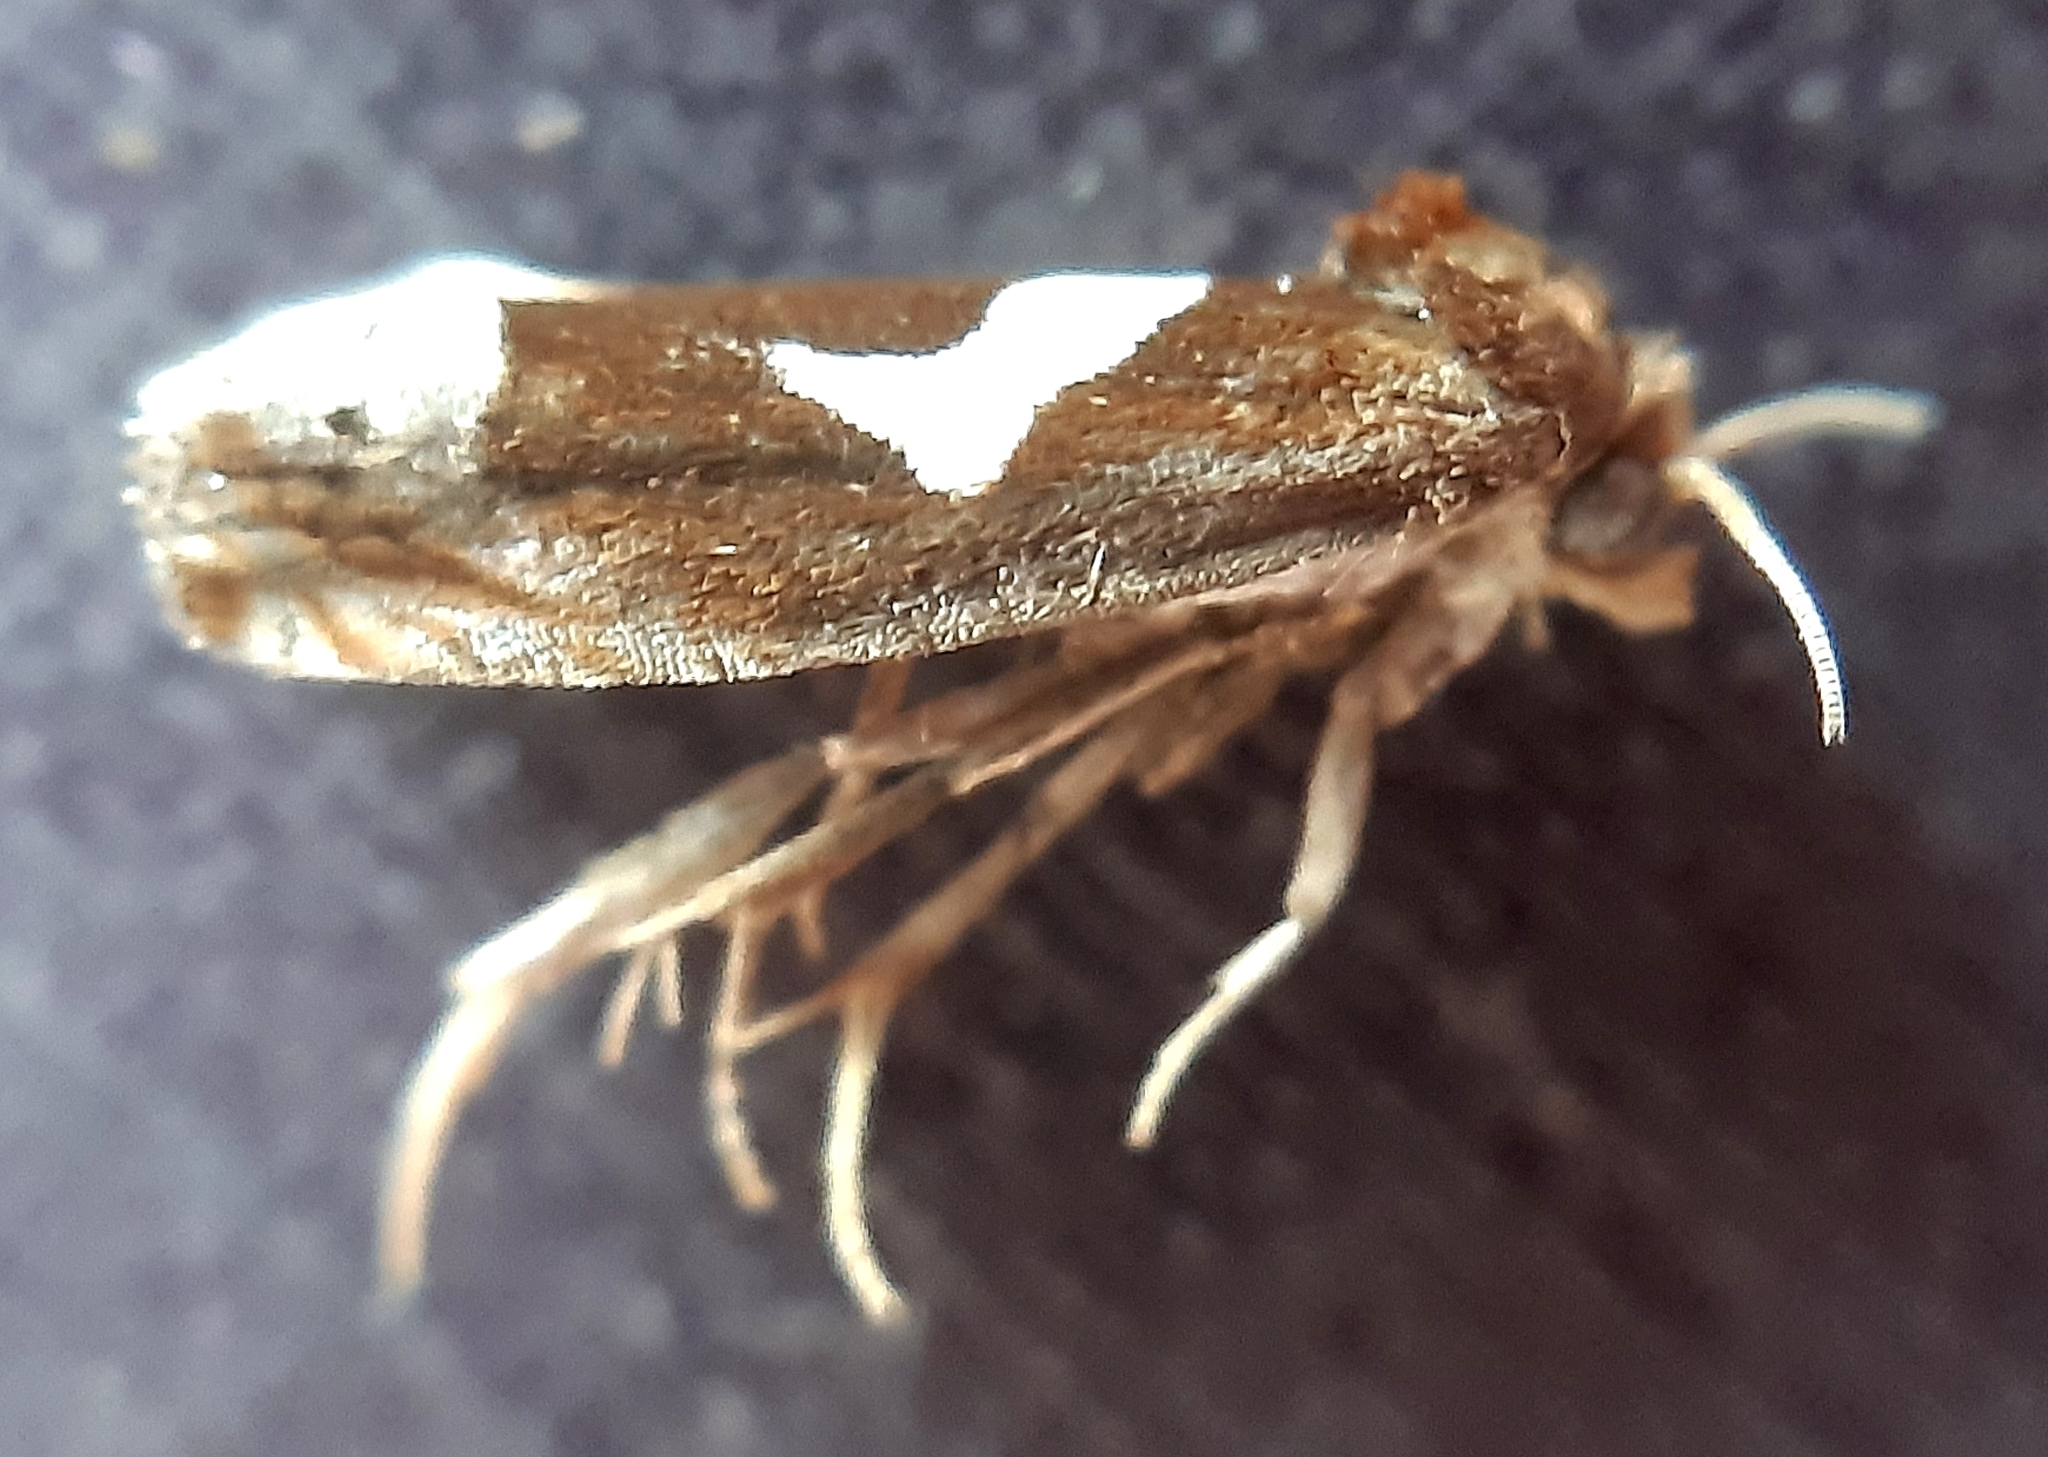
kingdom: Animalia
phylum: Arthropoda
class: Insecta
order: Lepidoptera
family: Tortricidae
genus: Epiblema
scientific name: Epiblema foenella
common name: White-foot bell
